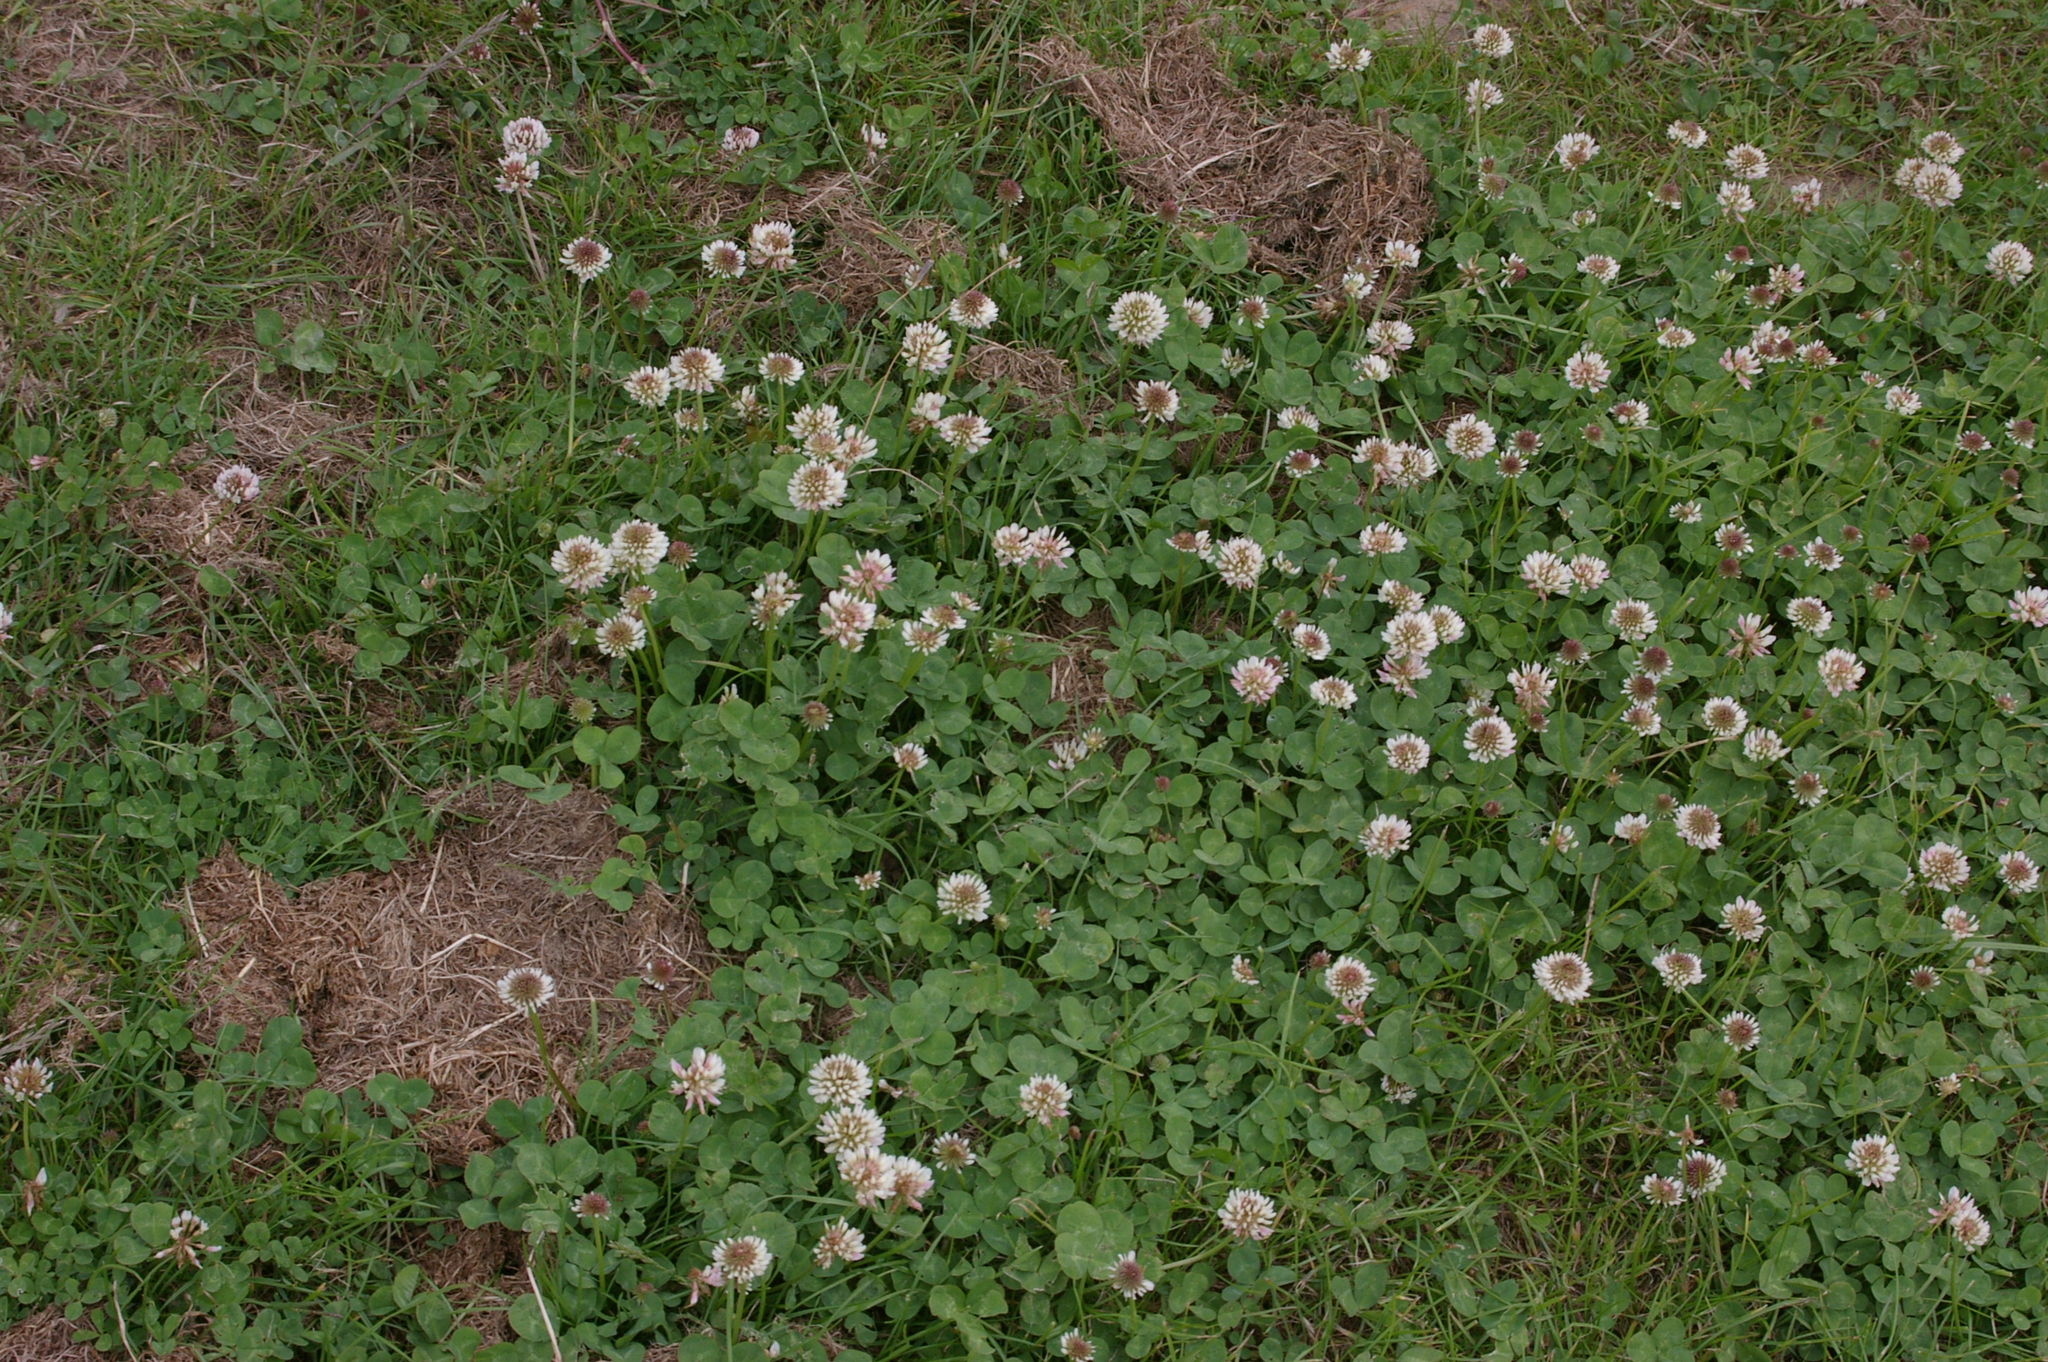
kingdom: Plantae
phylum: Tracheophyta
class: Magnoliopsida
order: Fabales
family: Fabaceae
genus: Trifolium
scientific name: Trifolium repens
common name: White clover
